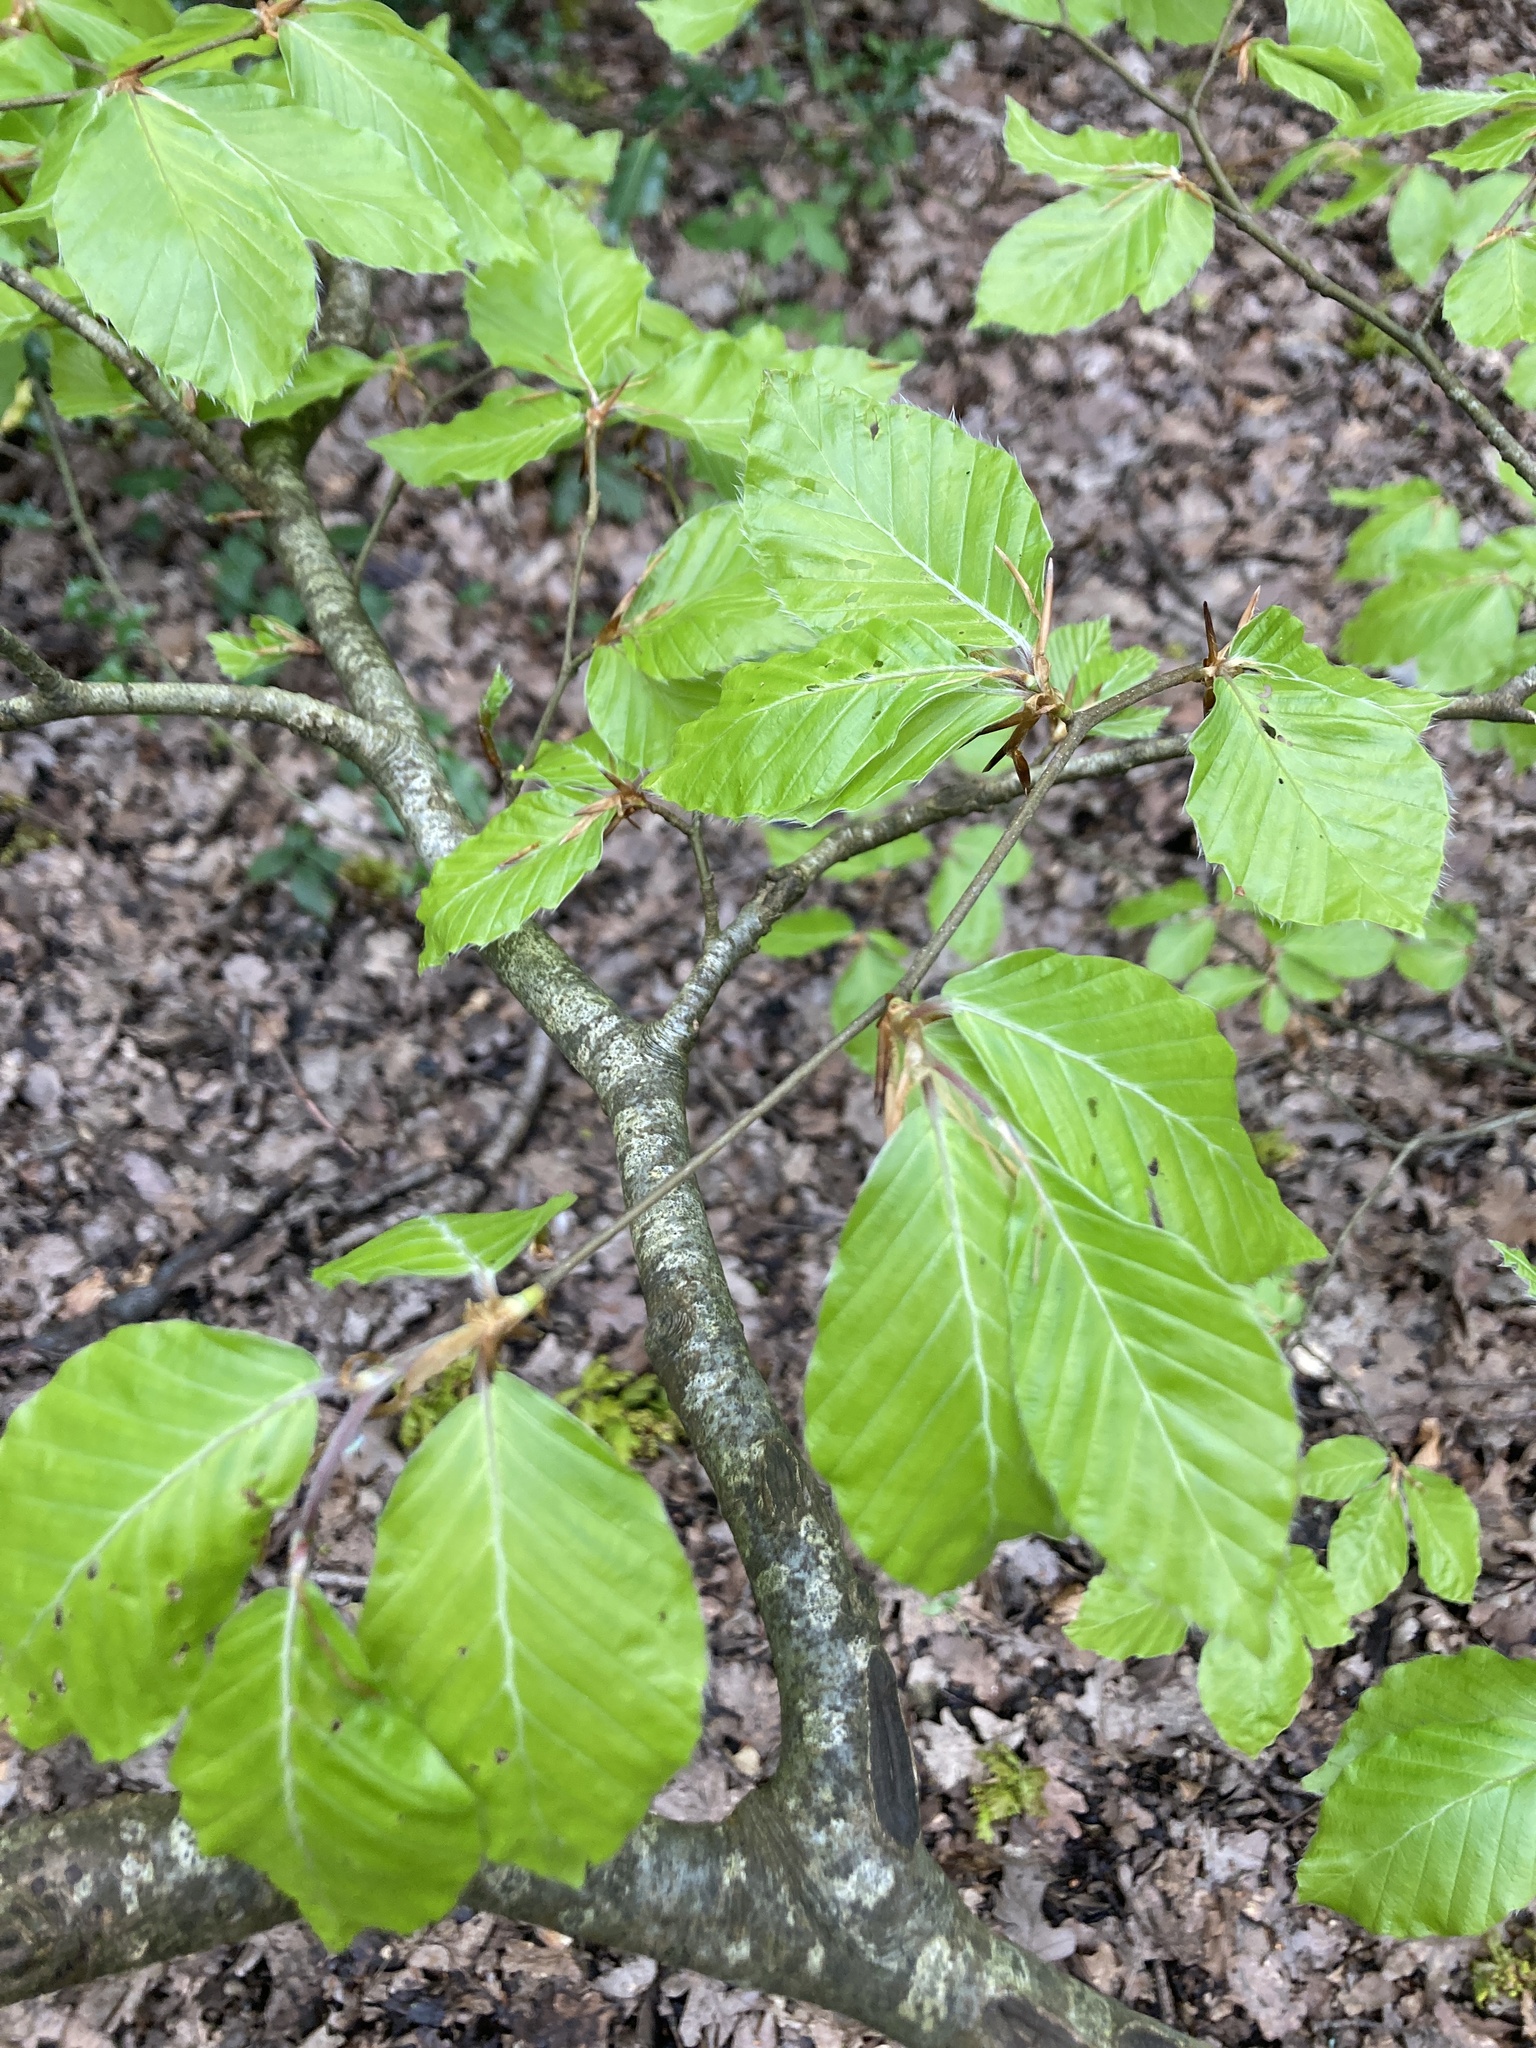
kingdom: Plantae
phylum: Tracheophyta
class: Magnoliopsida
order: Fagales
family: Fagaceae
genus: Fagus
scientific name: Fagus sylvatica
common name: Beech
